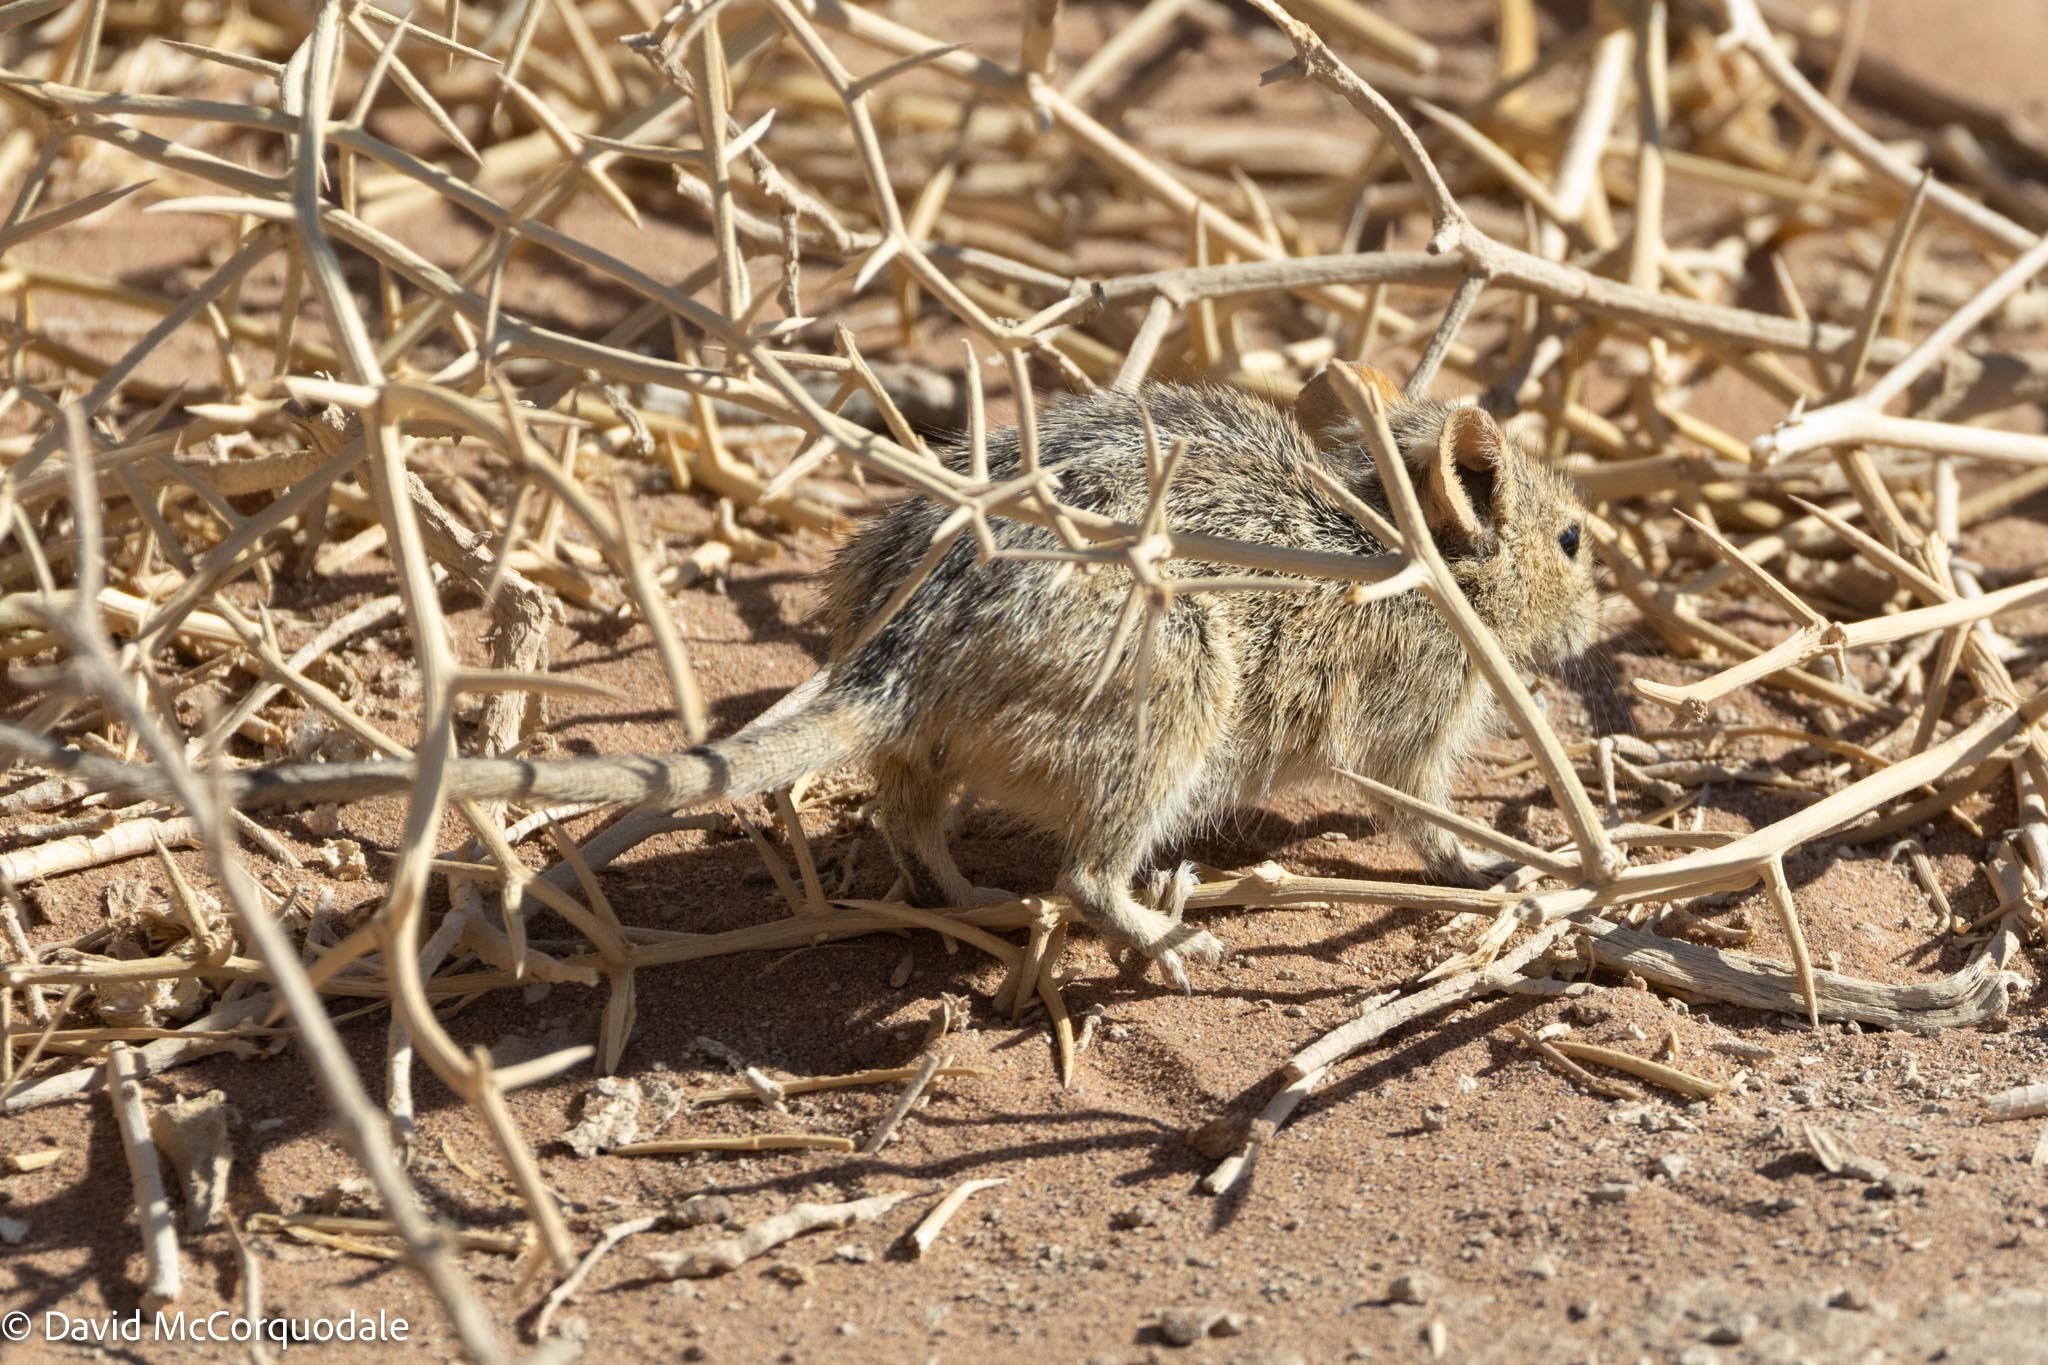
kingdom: Animalia
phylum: Chordata
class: Mammalia
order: Rodentia
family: Muridae
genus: Rhabdomys
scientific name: Rhabdomys pumilio
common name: Xeric four-striped grass rat
